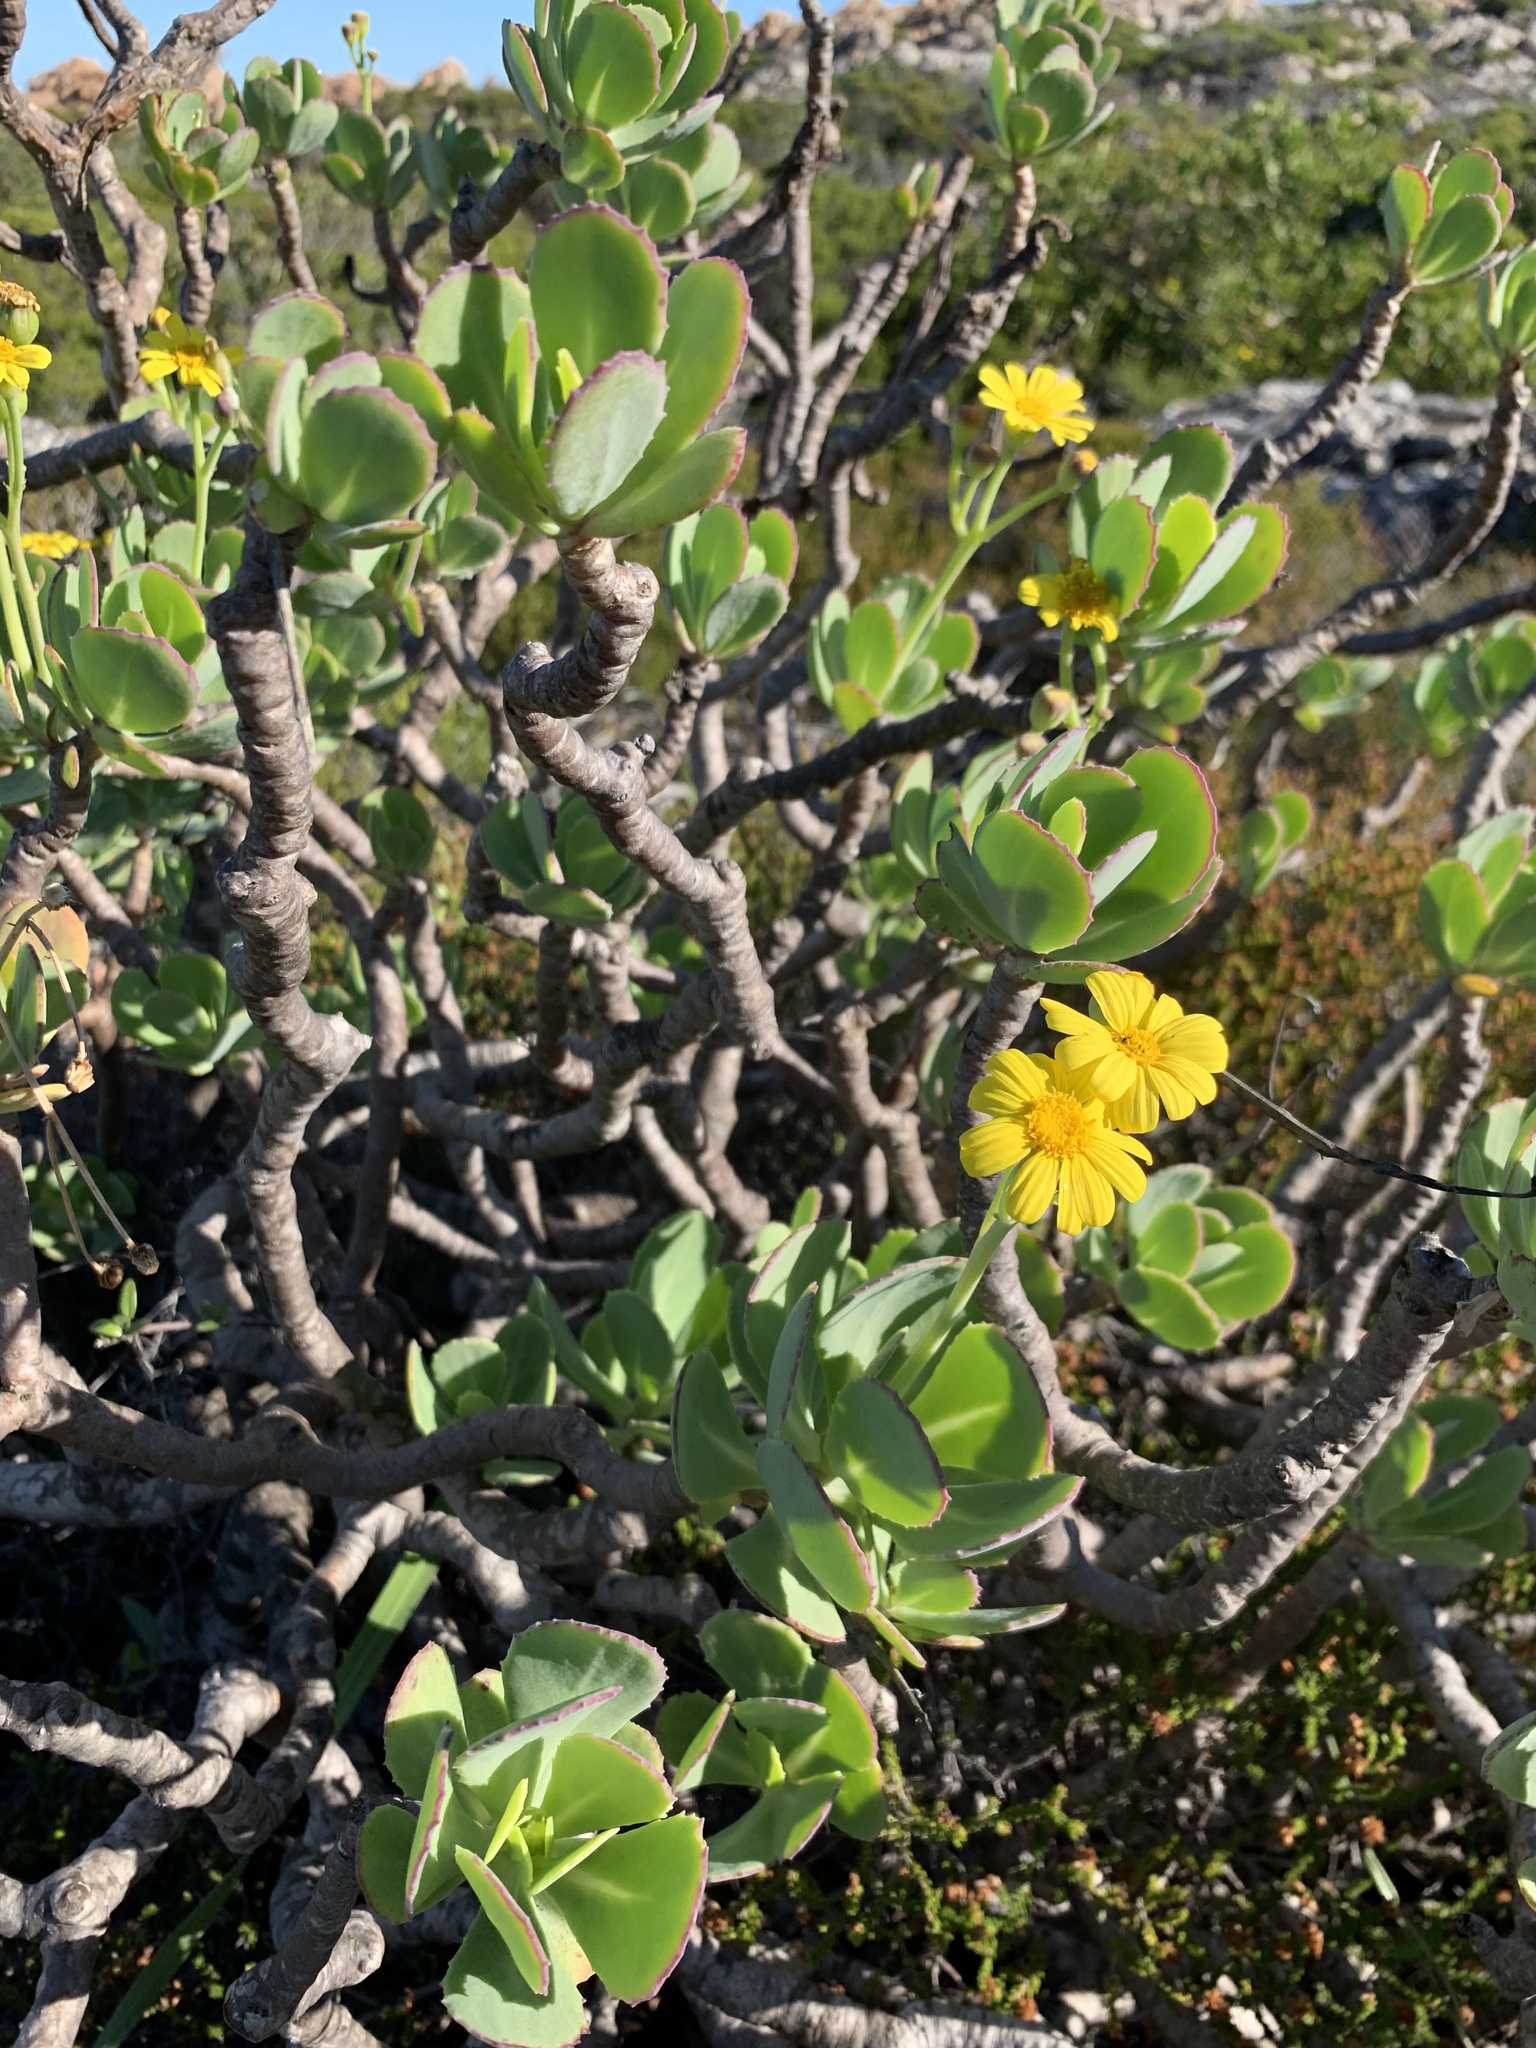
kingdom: Plantae
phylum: Tracheophyta
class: Magnoliopsida
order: Asterales
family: Asteraceae
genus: Othonna
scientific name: Othonna dentata
